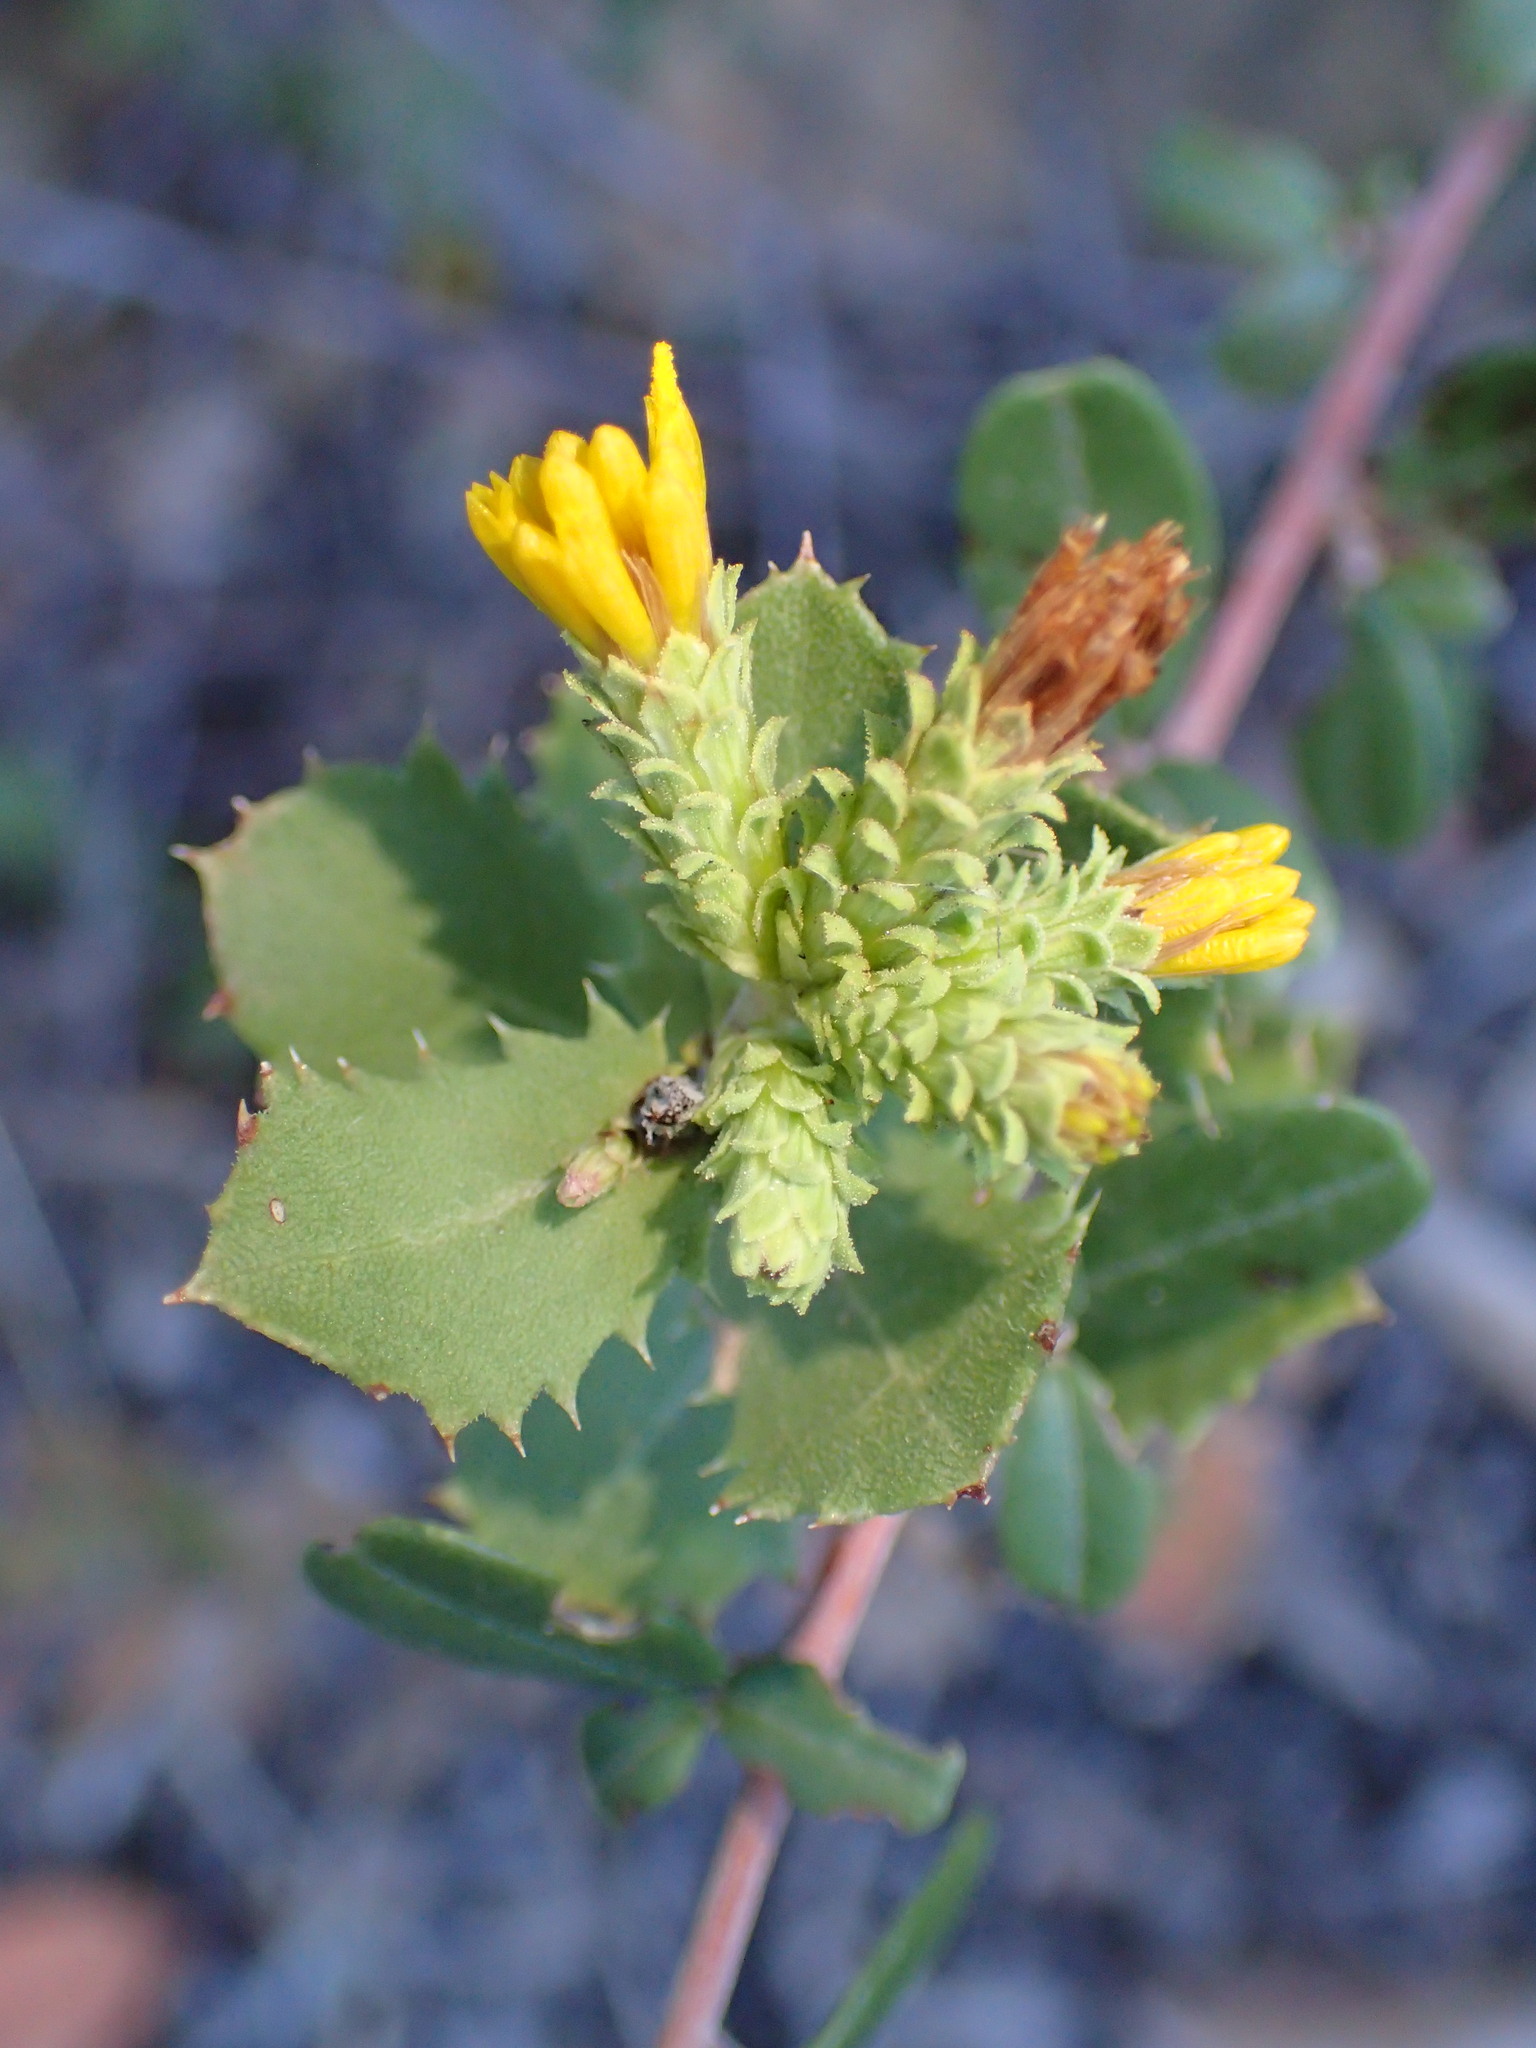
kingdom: Plantae
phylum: Tracheophyta
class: Magnoliopsida
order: Asterales
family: Asteraceae
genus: Hazardia
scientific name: Hazardia squarrosa
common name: Saw-tooth goldenbush
